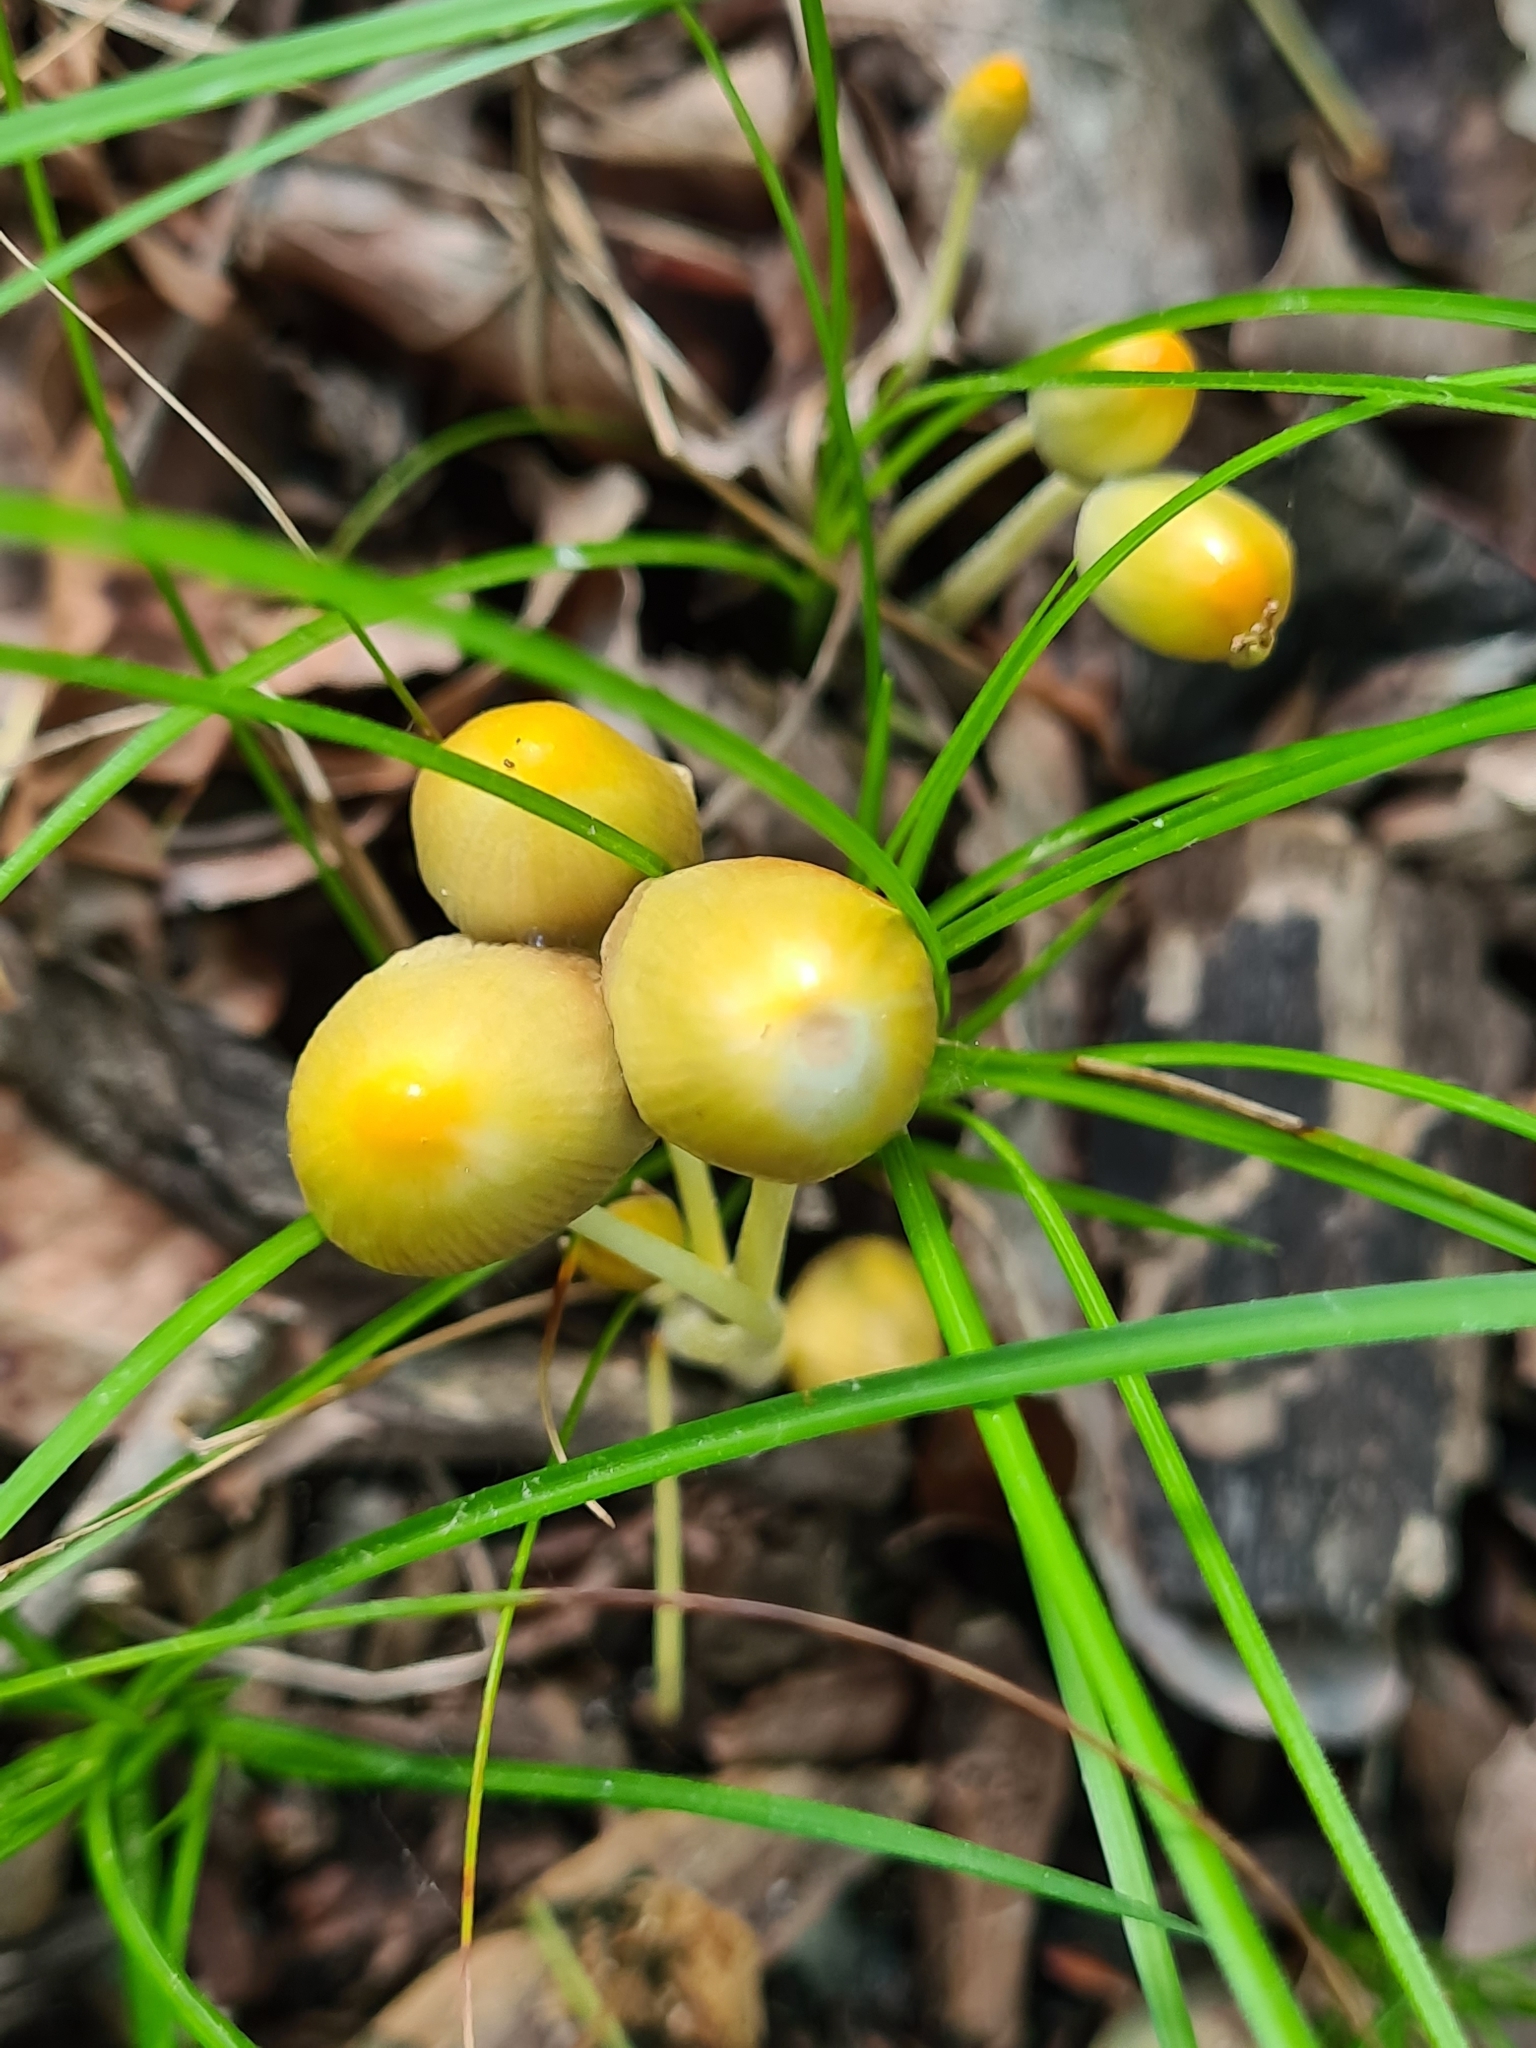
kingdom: Fungi
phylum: Basidiomycota
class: Agaricomycetes
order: Agaricales
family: Bolbitiaceae
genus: Bolbitius
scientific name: Bolbitius titubans
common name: Yellow fieldcap
